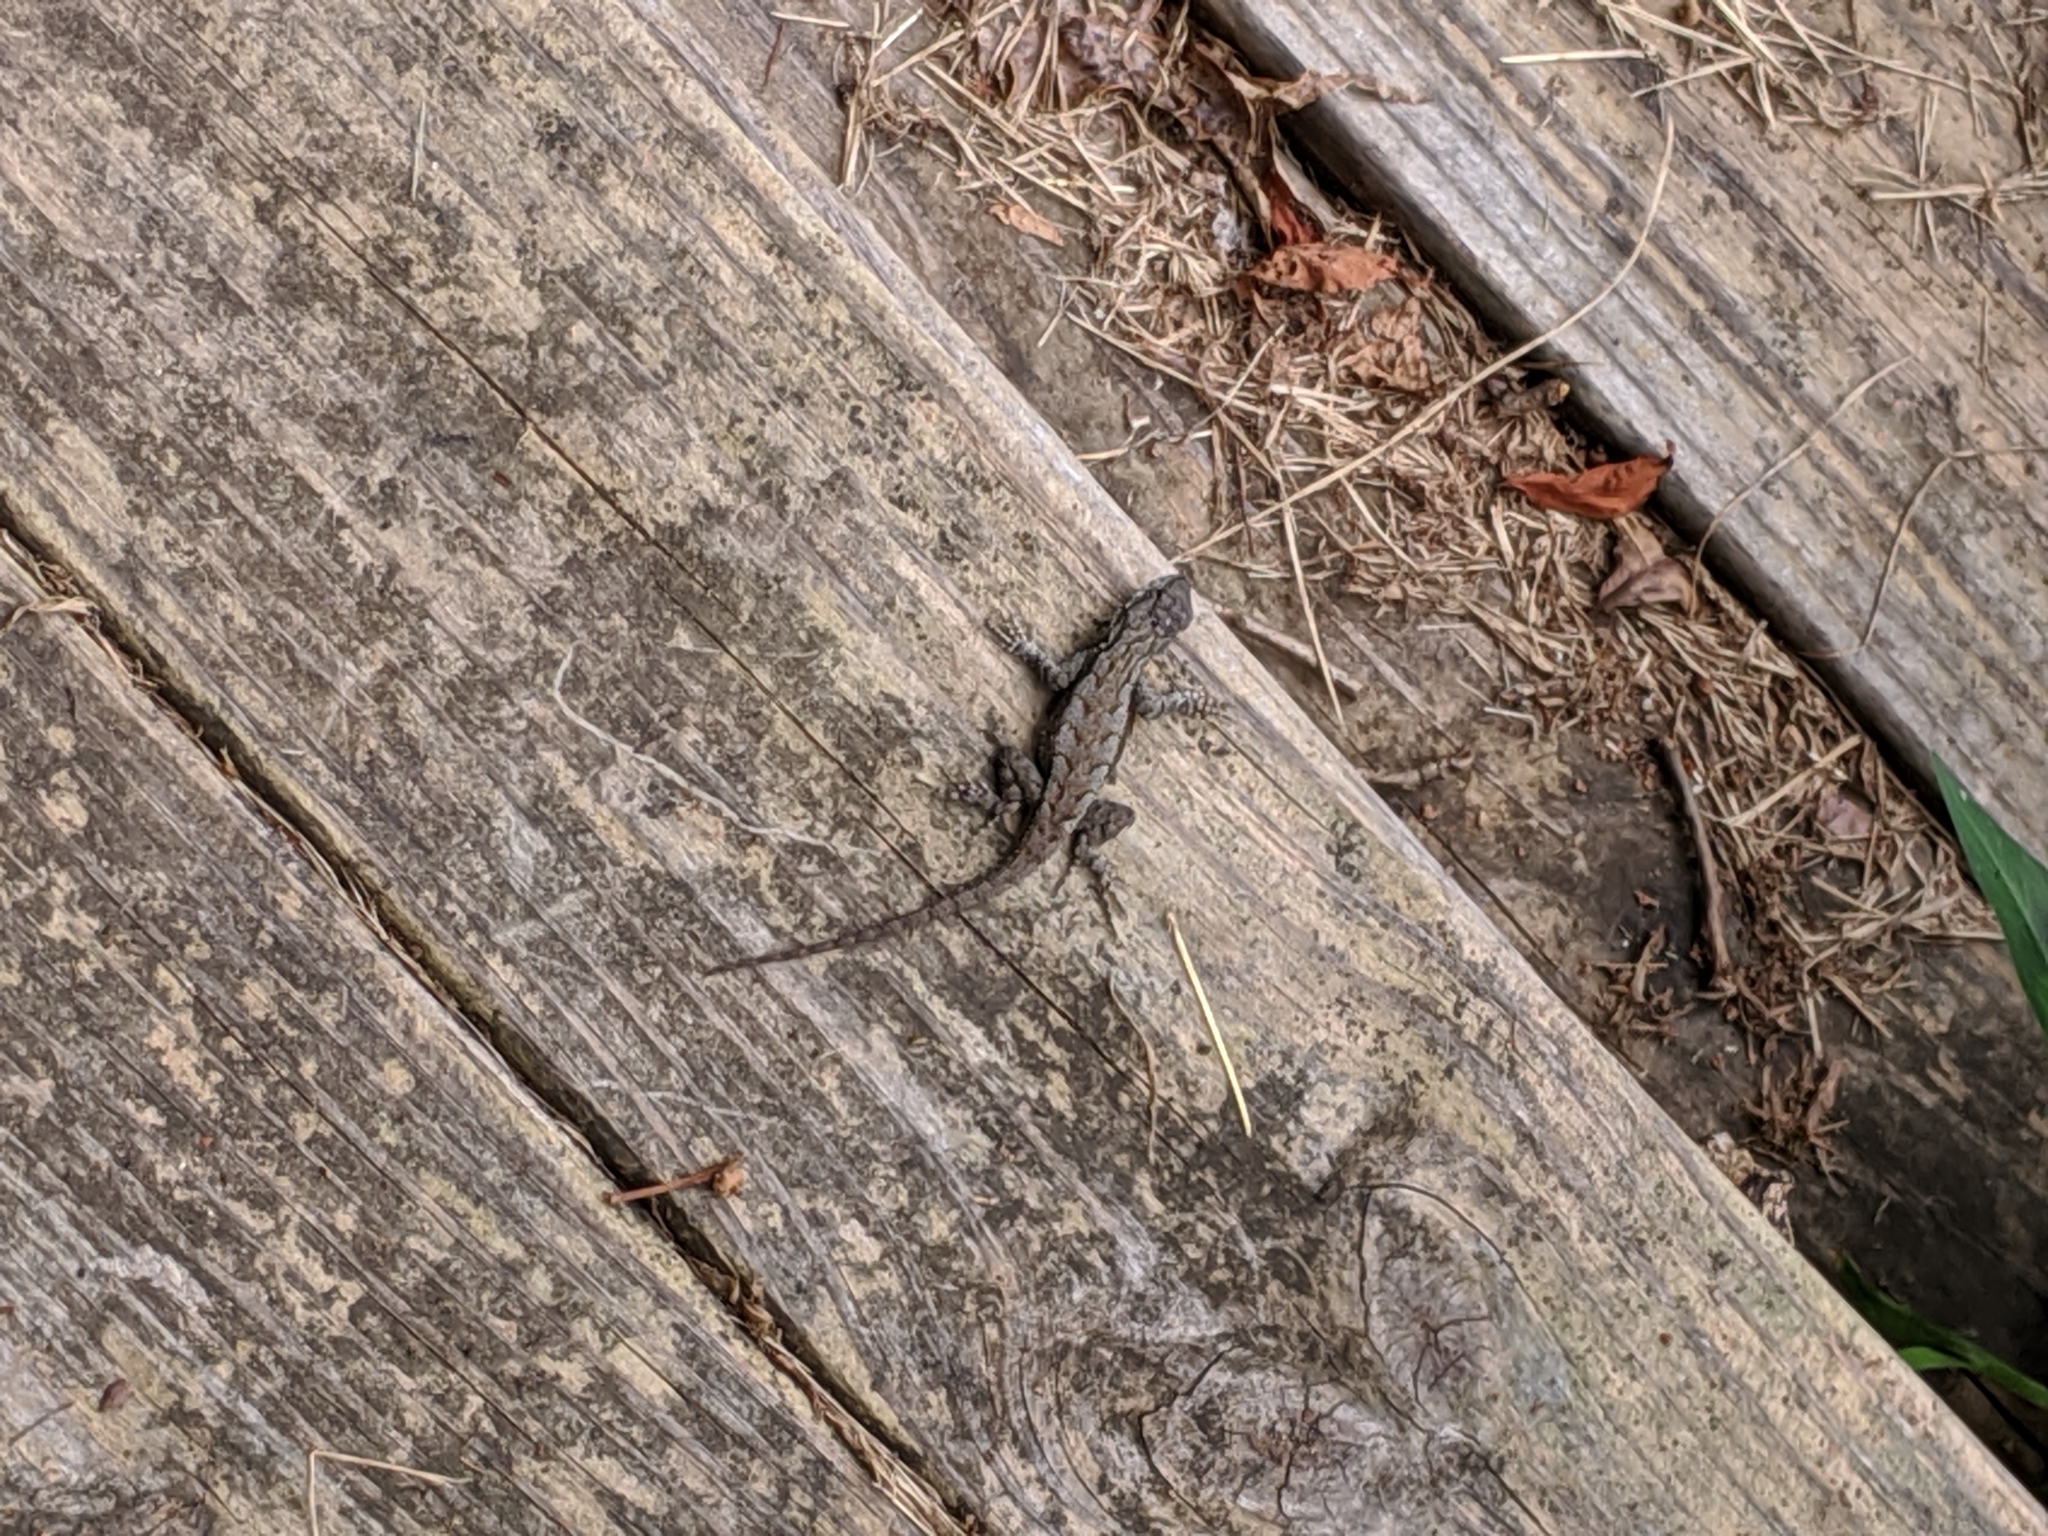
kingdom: Animalia
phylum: Chordata
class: Squamata
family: Phrynosomatidae
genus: Sceloporus
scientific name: Sceloporus undulatus
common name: Eastern fence lizard
